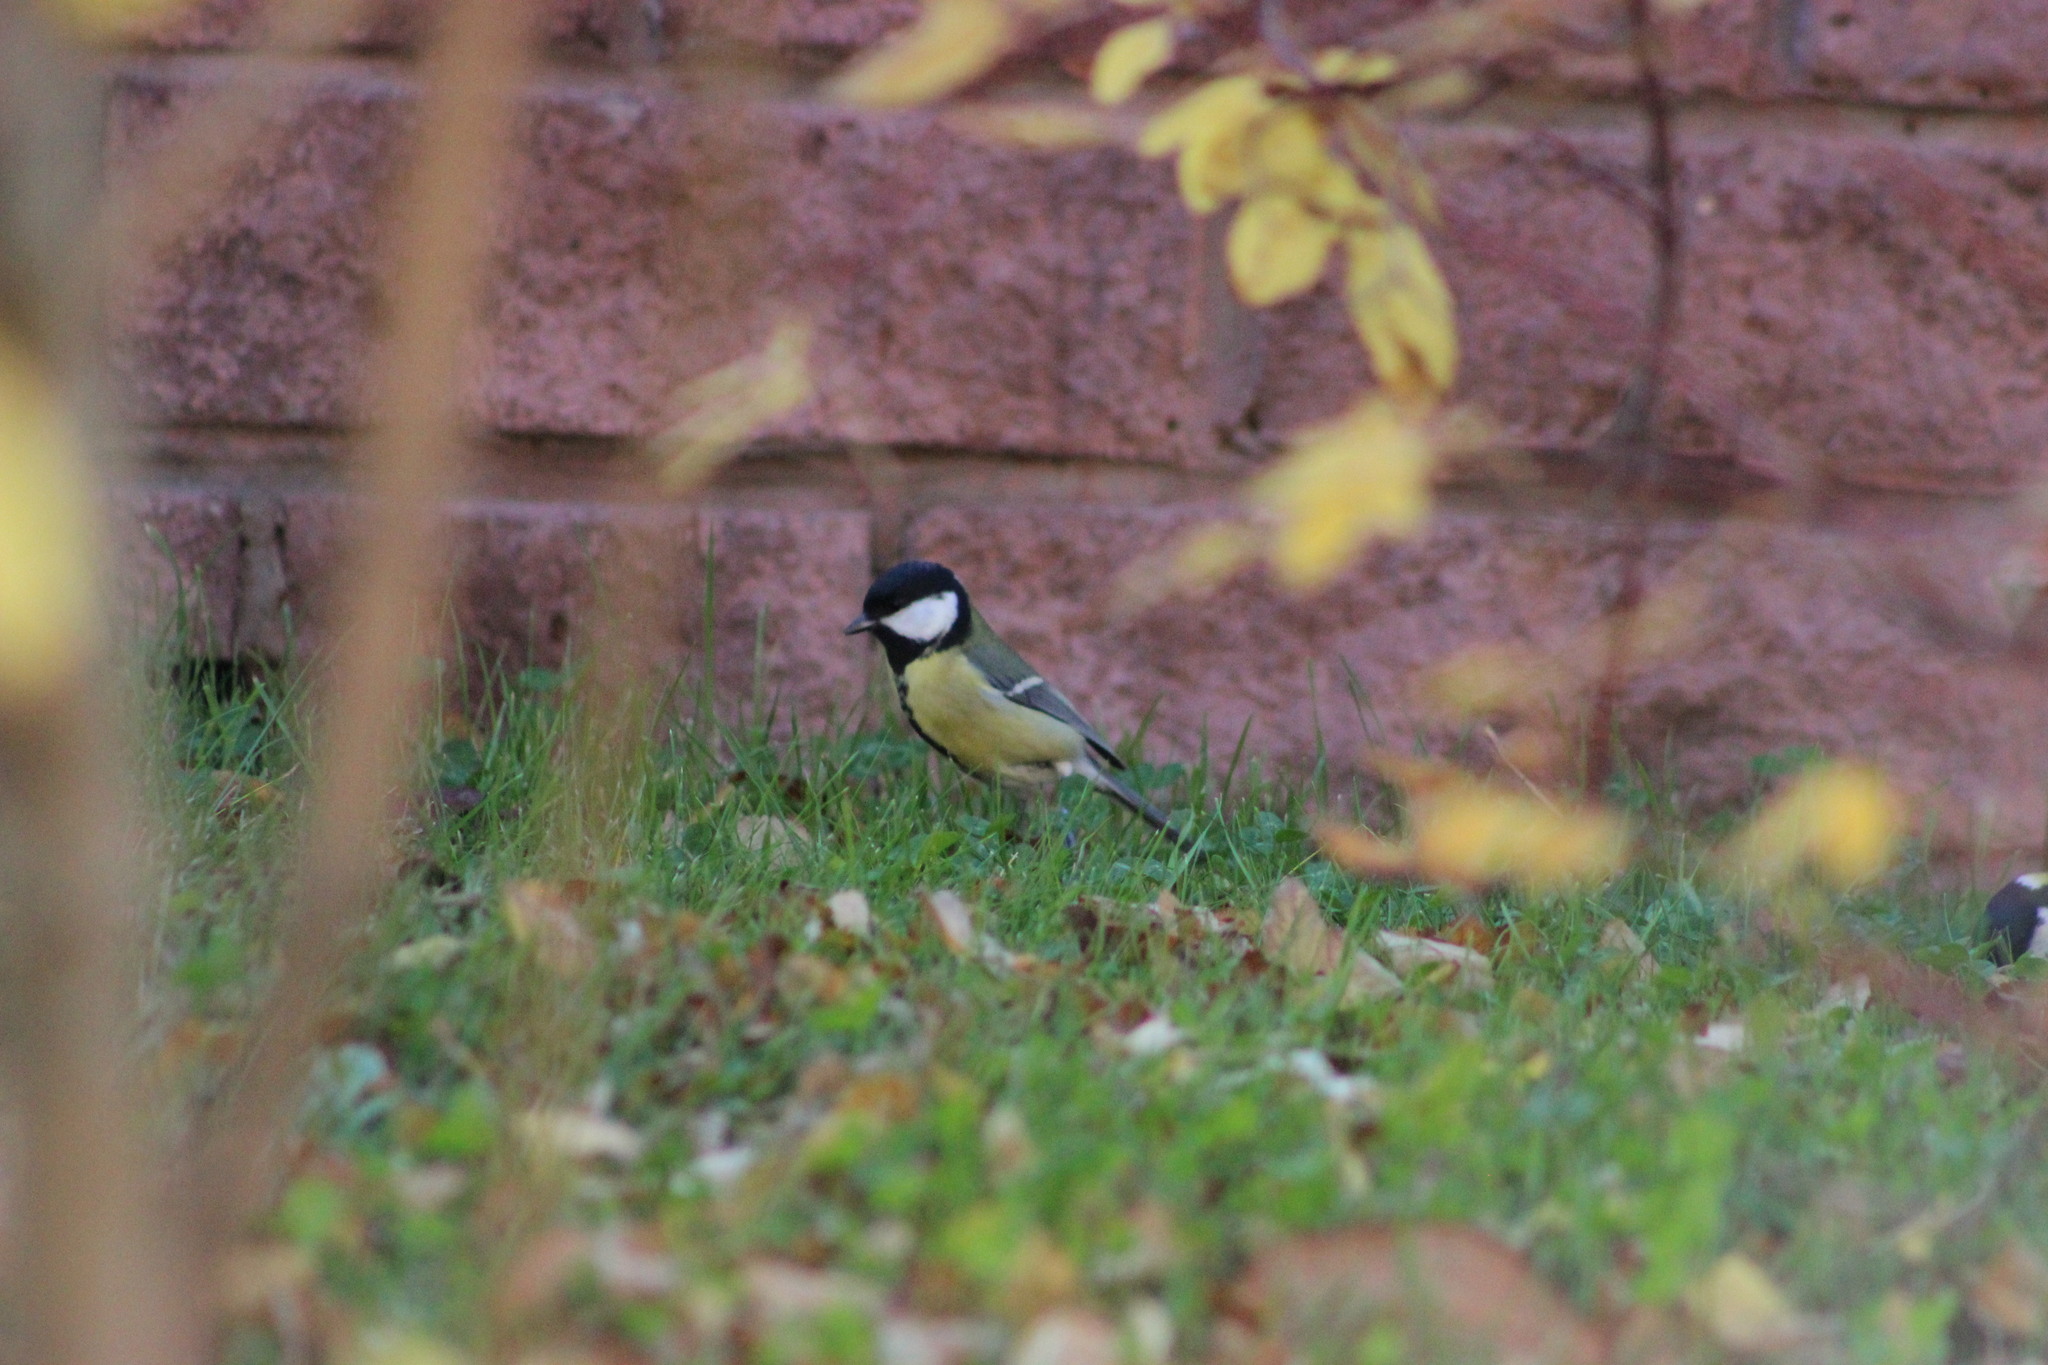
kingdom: Animalia
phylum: Chordata
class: Aves
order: Passeriformes
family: Paridae
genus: Parus
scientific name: Parus major
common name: Great tit
